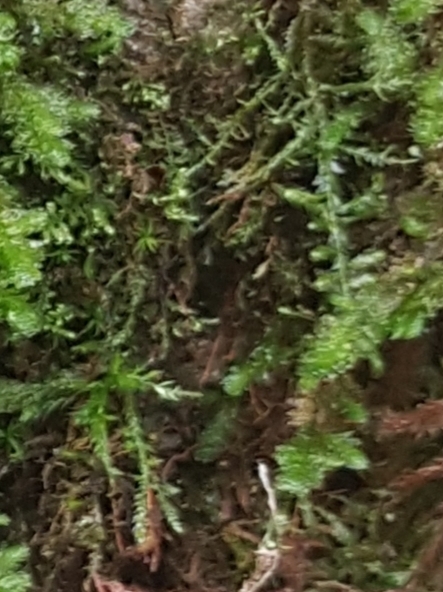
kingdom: Plantae
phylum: Bryophyta
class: Bryopsida
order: Hypnales
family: Neckeraceae
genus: Alleniella
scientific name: Alleniella complanata
